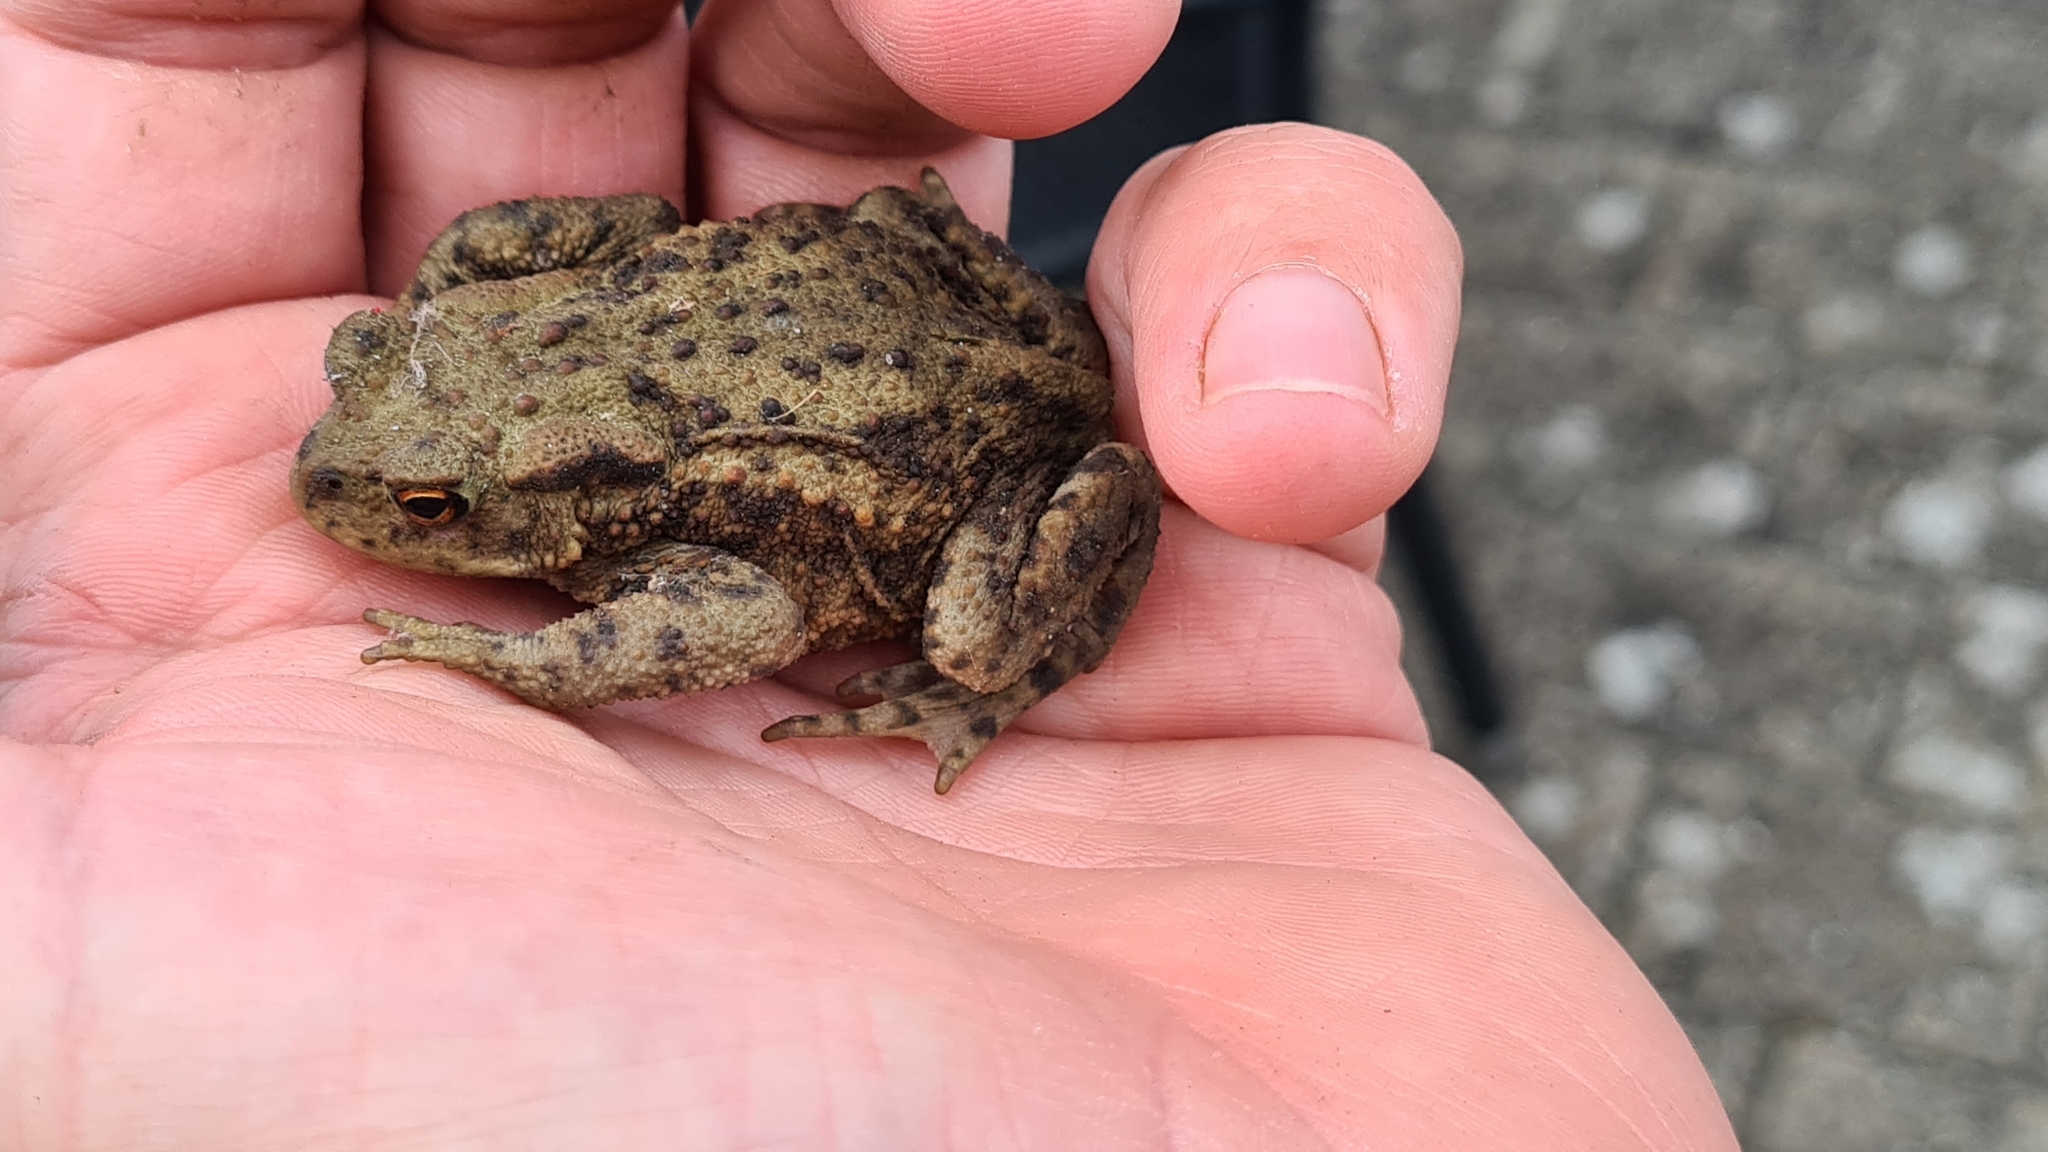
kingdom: Animalia
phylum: Chordata
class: Amphibia
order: Anura
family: Bufonidae
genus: Bufo
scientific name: Bufo bufo
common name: Common toad
